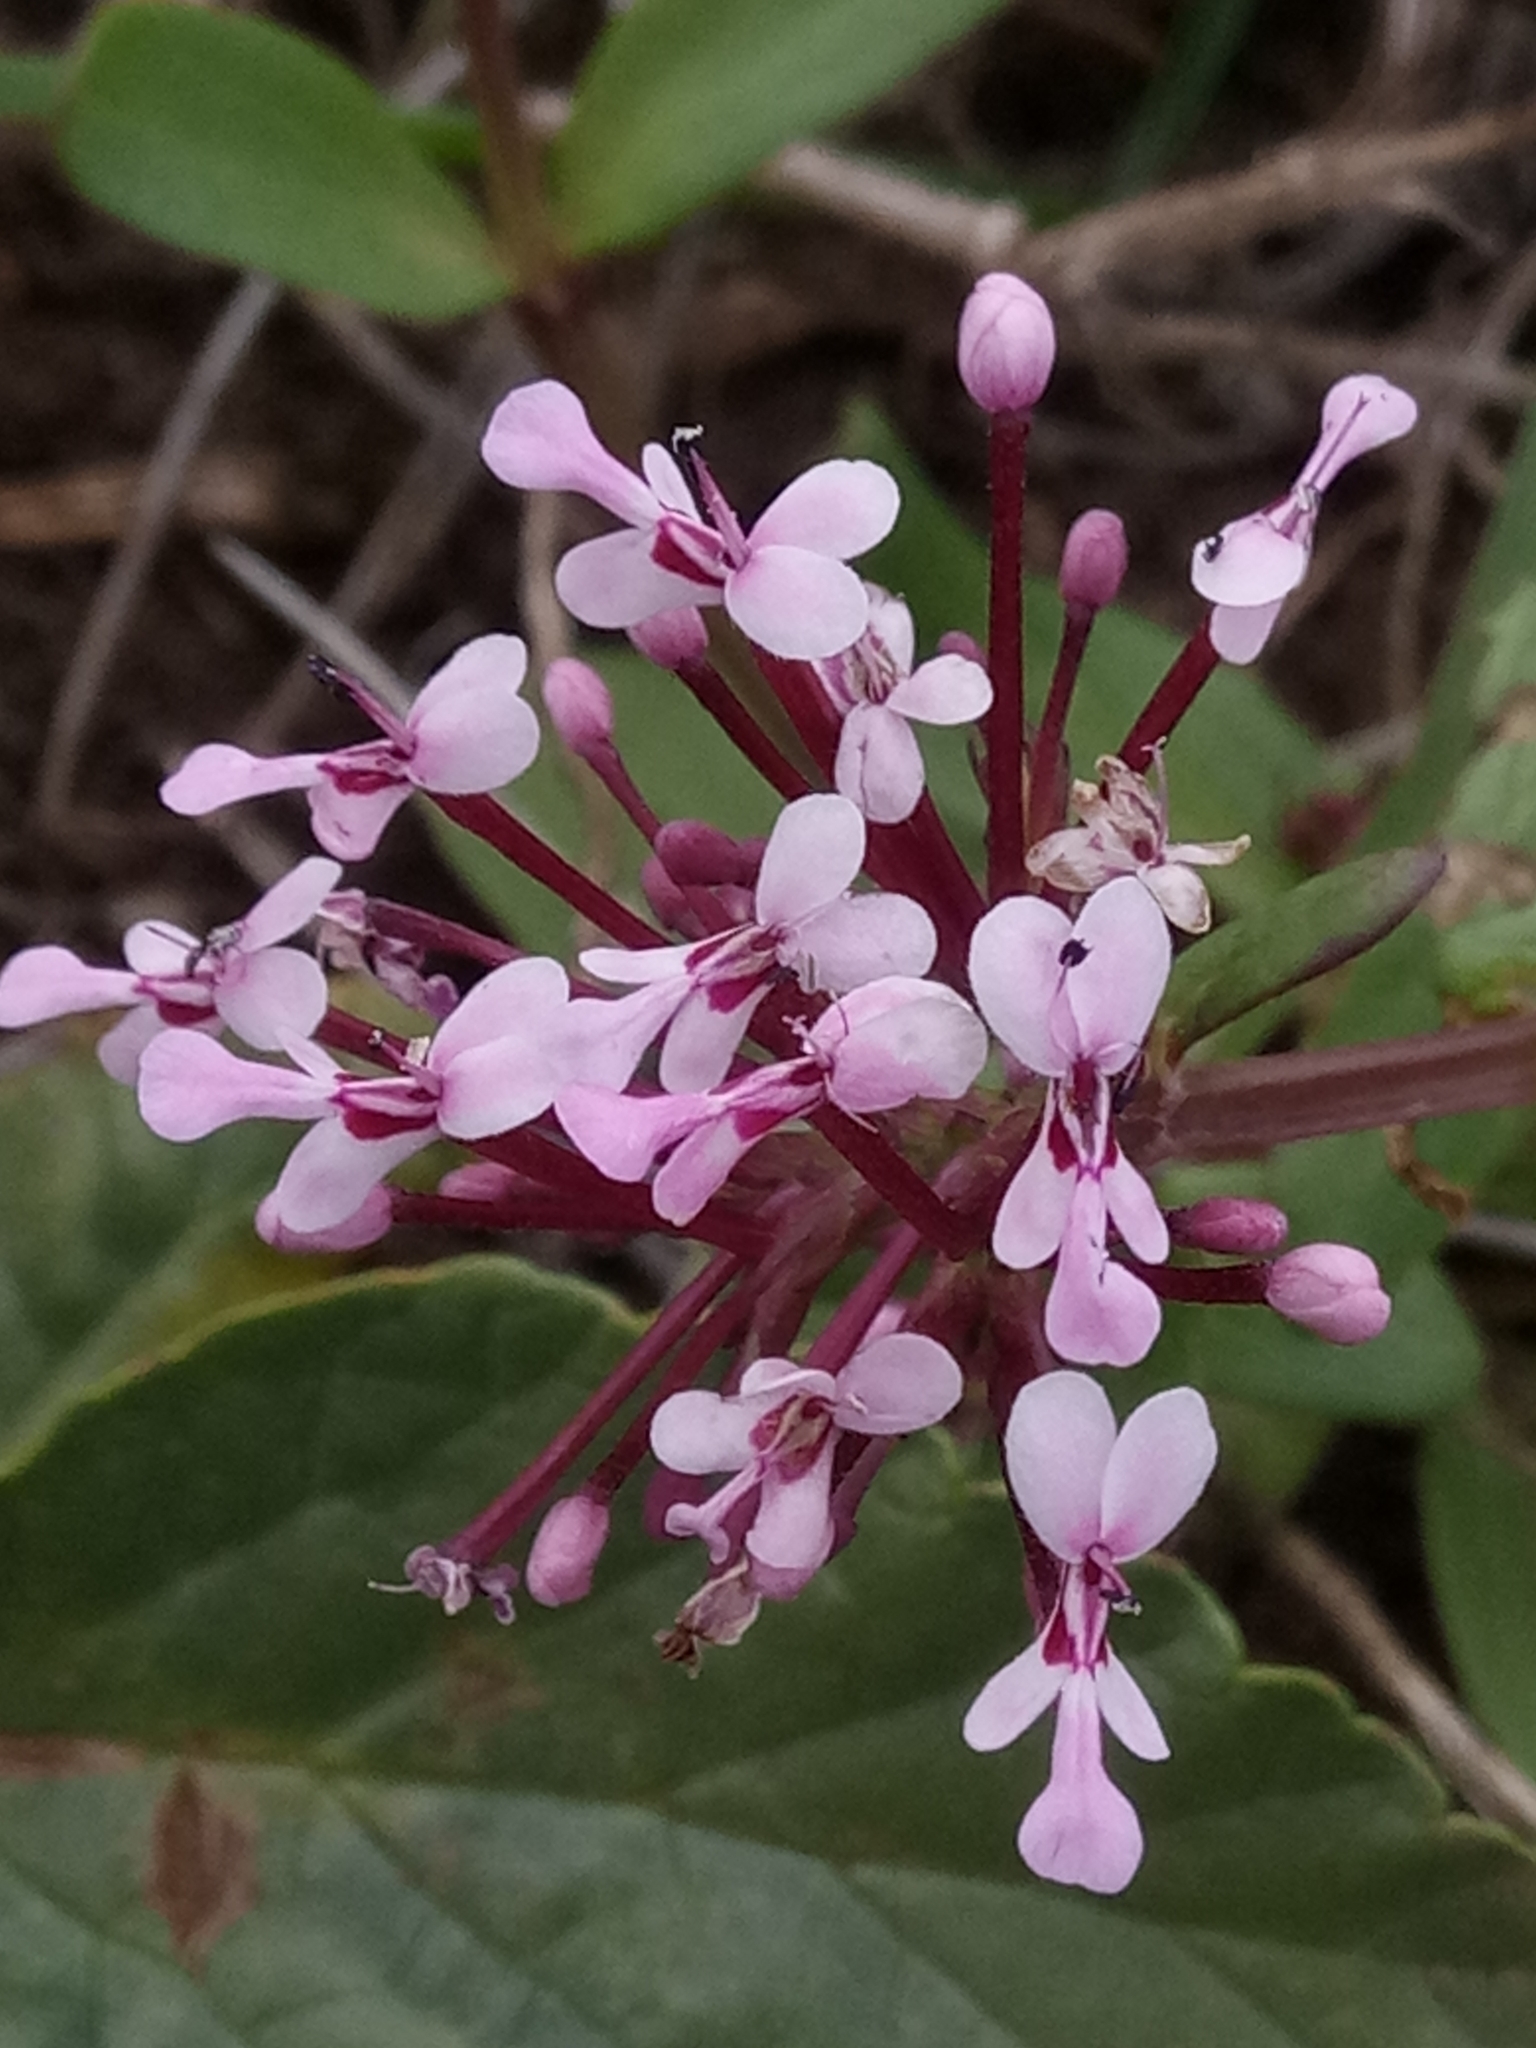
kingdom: Plantae
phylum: Tracheophyta
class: Magnoliopsida
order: Dipsacales
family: Caprifoliaceae
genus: Fedia
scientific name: Fedia graciliflora
